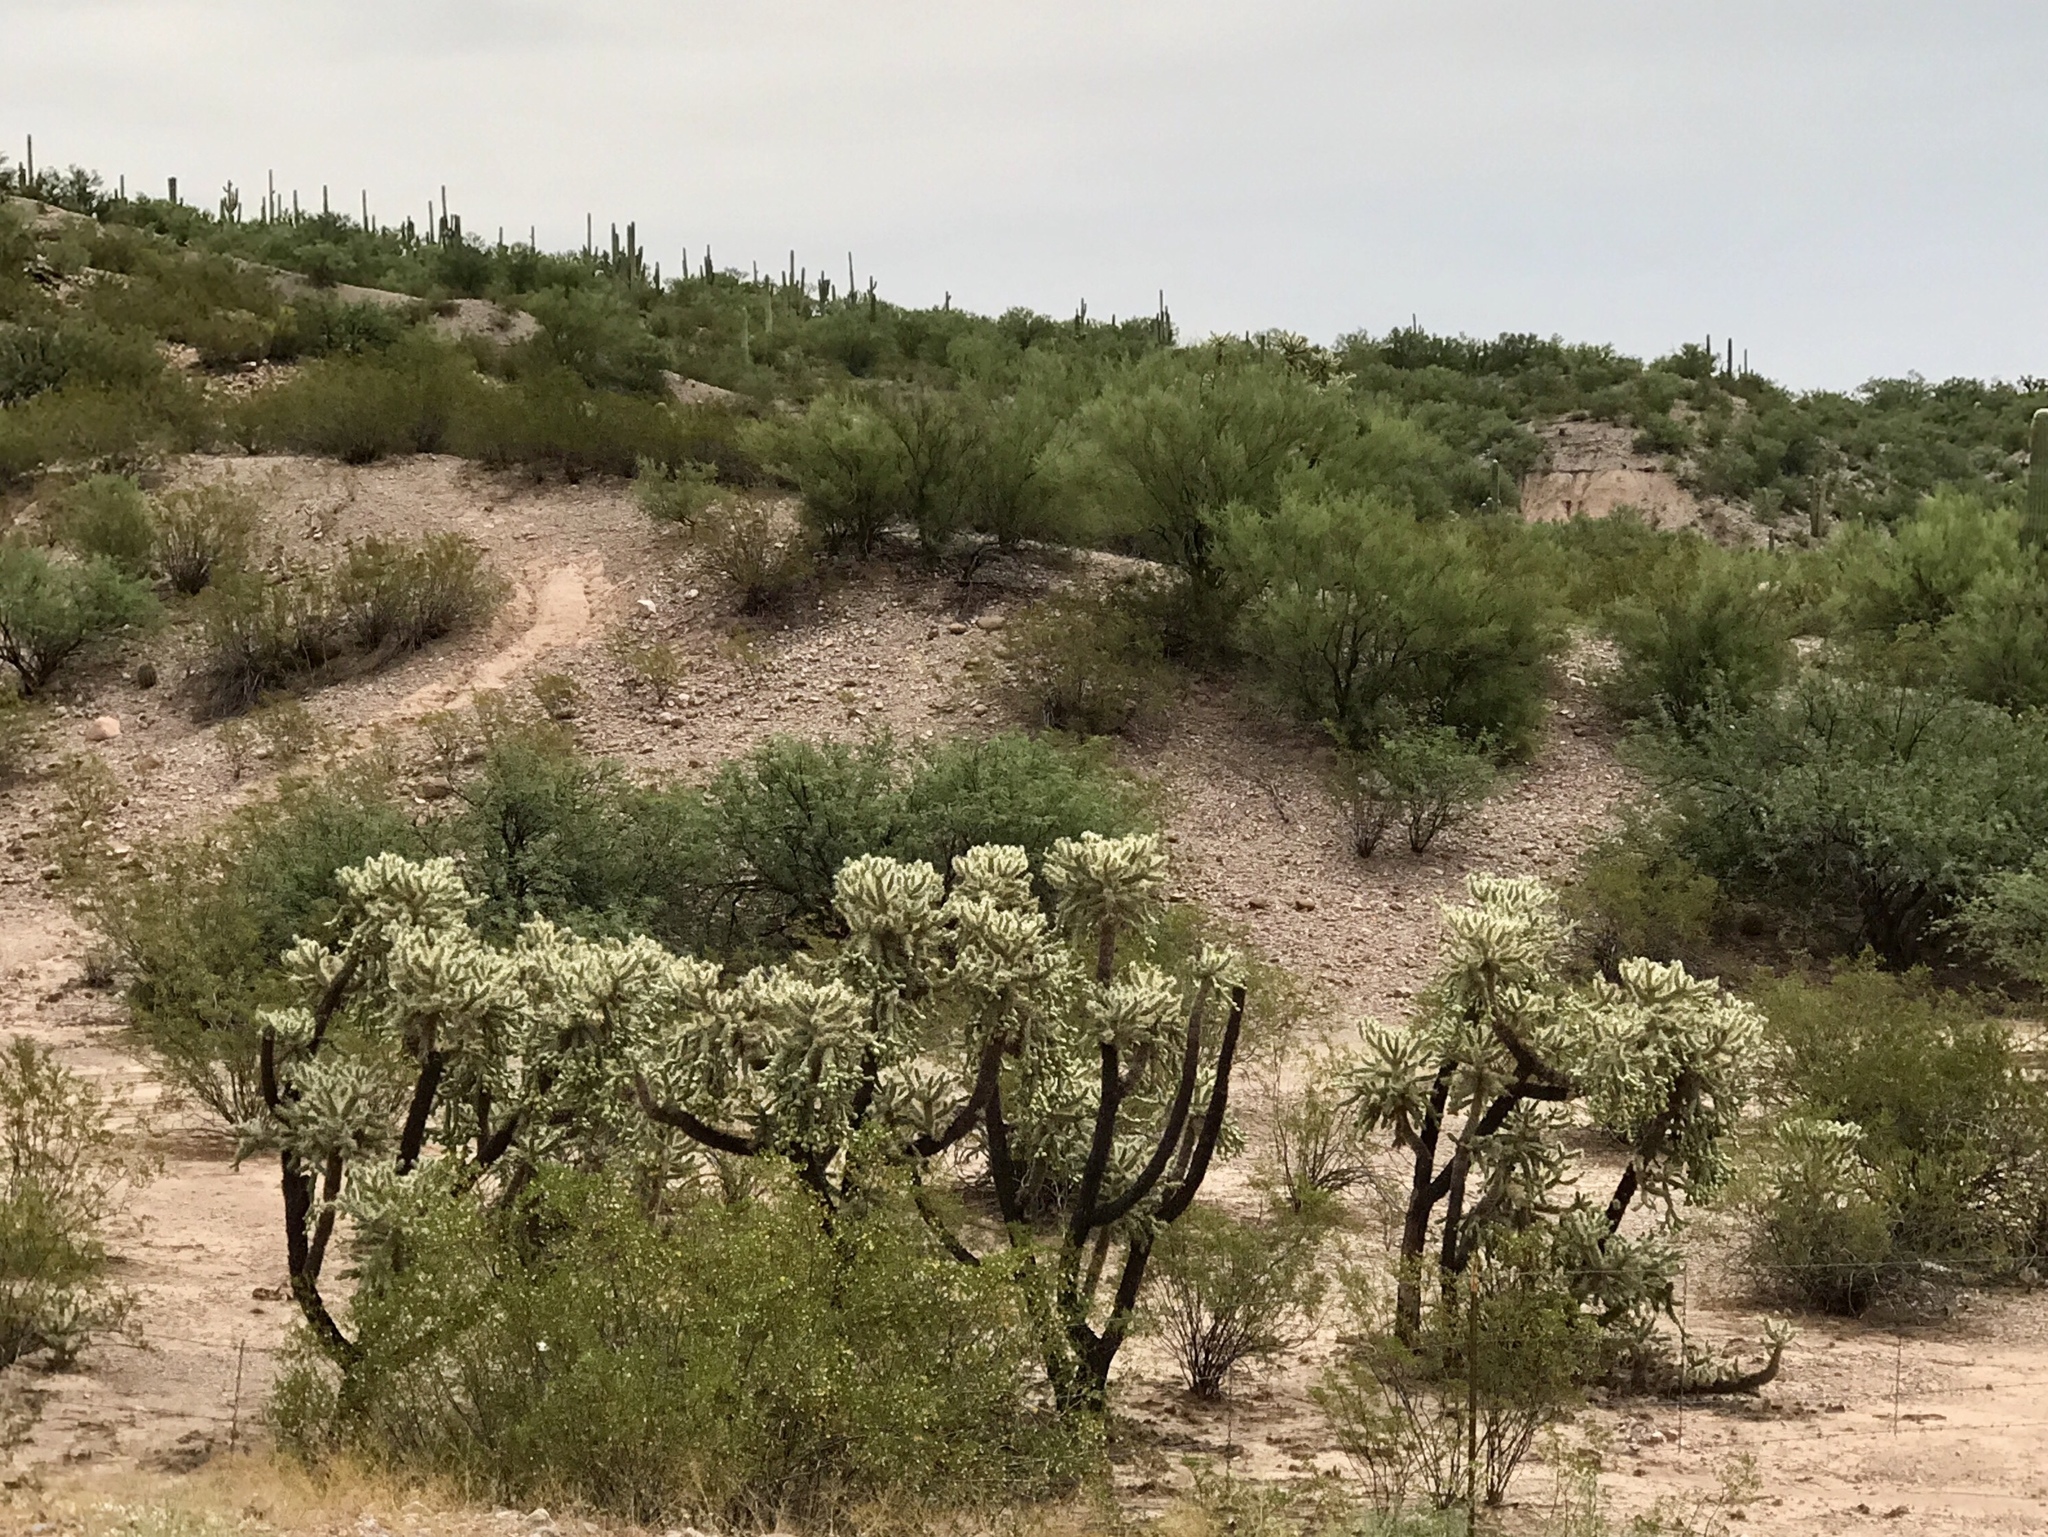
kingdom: Plantae
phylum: Tracheophyta
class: Magnoliopsida
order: Caryophyllales
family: Cactaceae
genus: Cylindropuntia
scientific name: Cylindropuntia fulgida
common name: Jumping cholla
